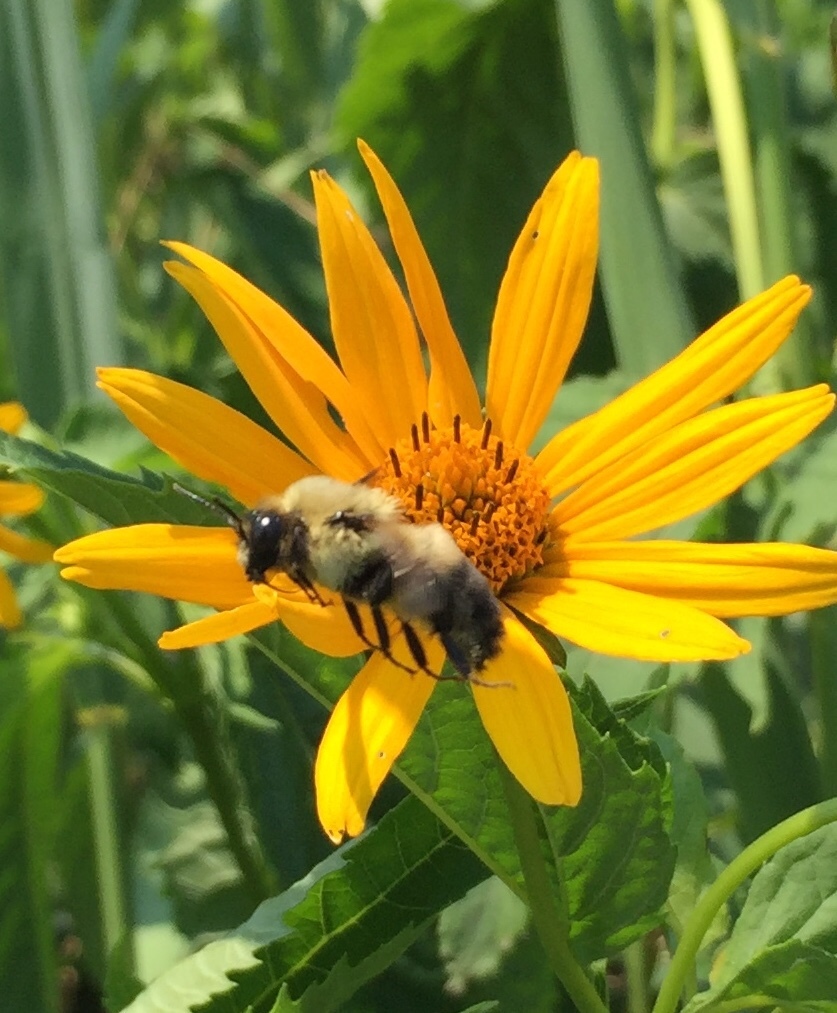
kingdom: Animalia
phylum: Arthropoda
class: Insecta
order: Hymenoptera
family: Apidae
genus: Bombus
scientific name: Bombus griseocollis
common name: Brown-belted bumble bee
